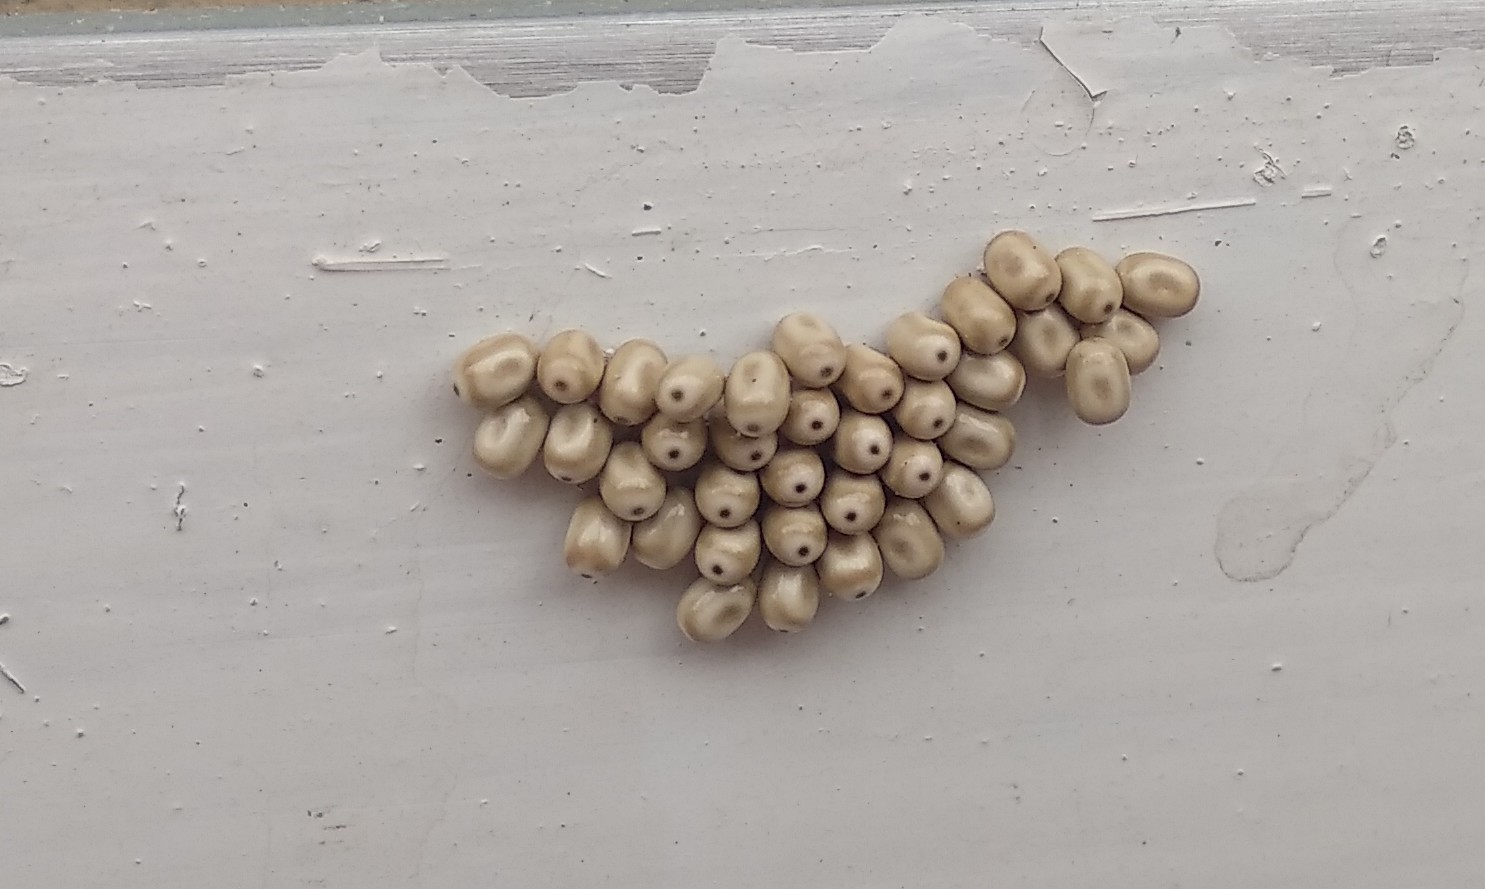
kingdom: Animalia
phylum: Arthropoda
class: Insecta
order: Lepidoptera
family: Lasiocampidae
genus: Macrothylacia
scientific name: Macrothylacia rubi
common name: Fox moth
